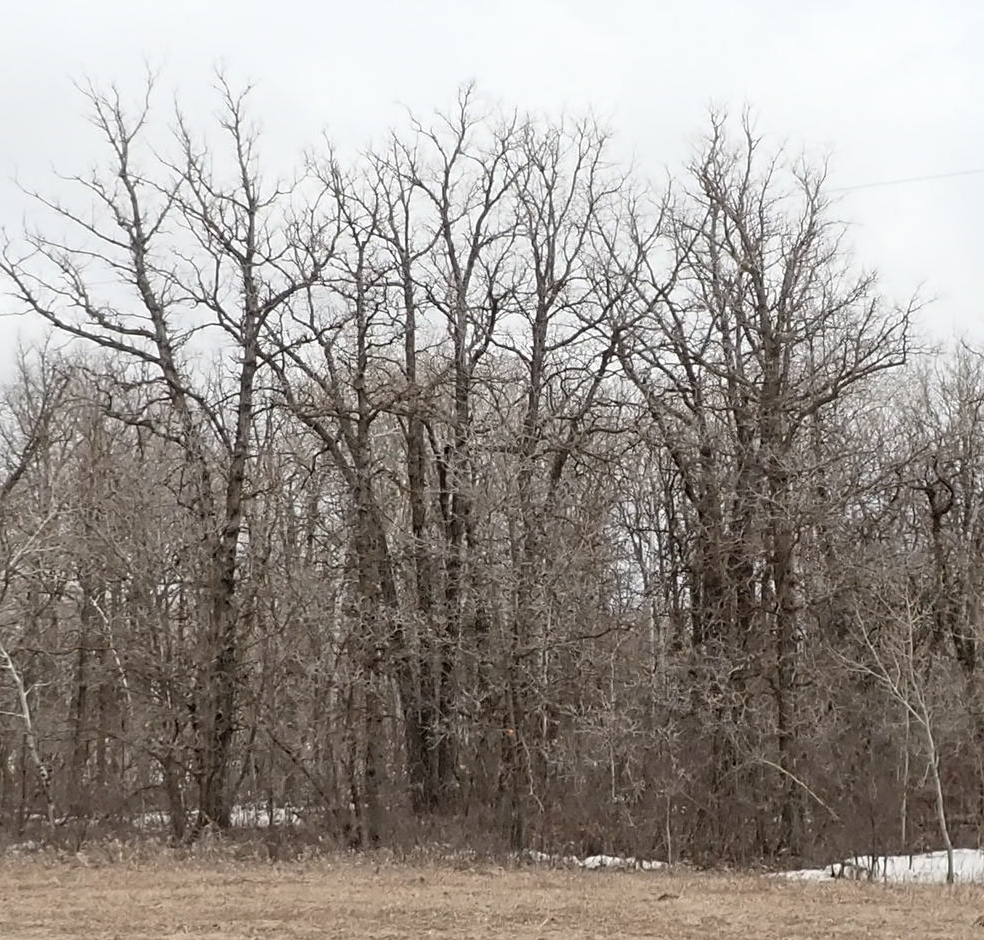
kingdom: Plantae
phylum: Tracheophyta
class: Magnoliopsida
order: Fagales
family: Fagaceae
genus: Quercus
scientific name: Quercus macrocarpa
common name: Bur oak
